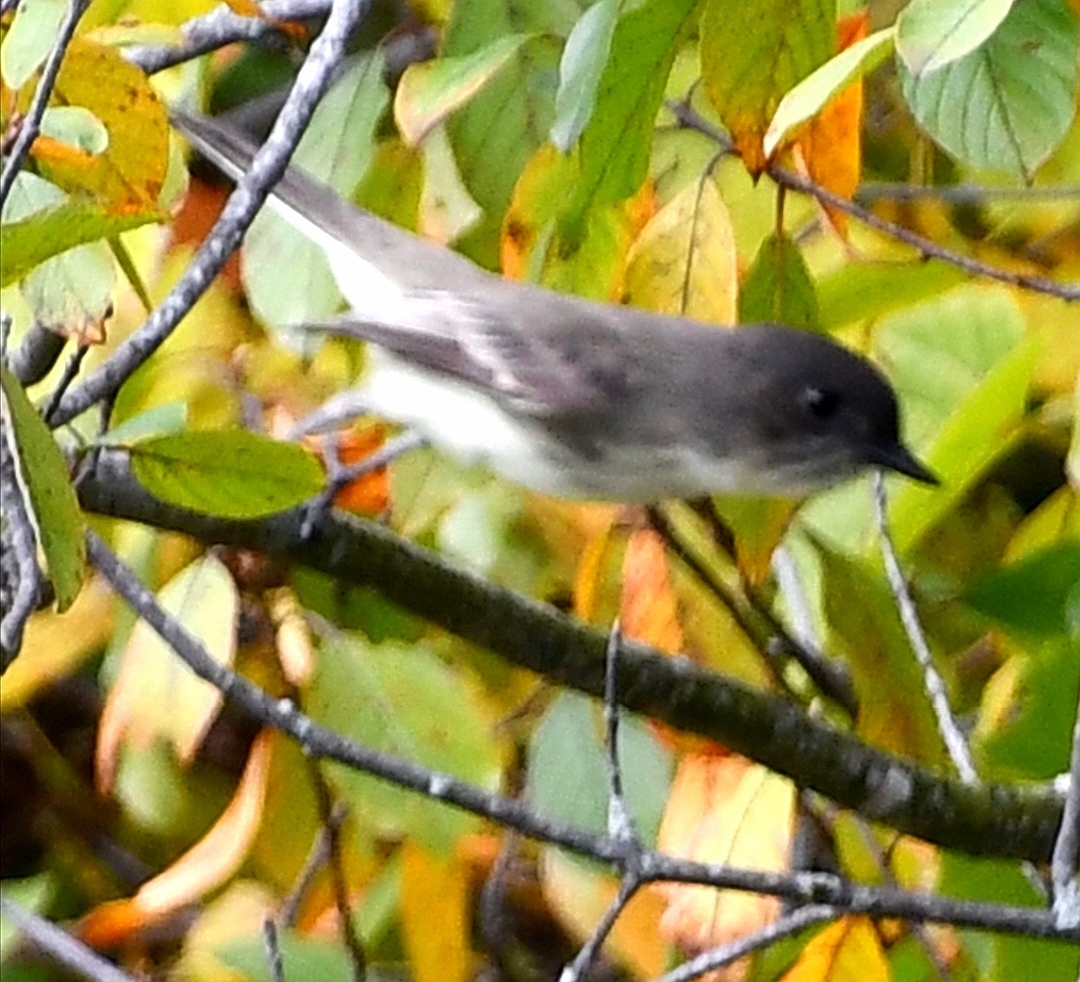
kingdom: Animalia
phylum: Chordata
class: Aves
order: Passeriformes
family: Tyrannidae
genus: Sayornis
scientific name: Sayornis phoebe
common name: Eastern phoebe
